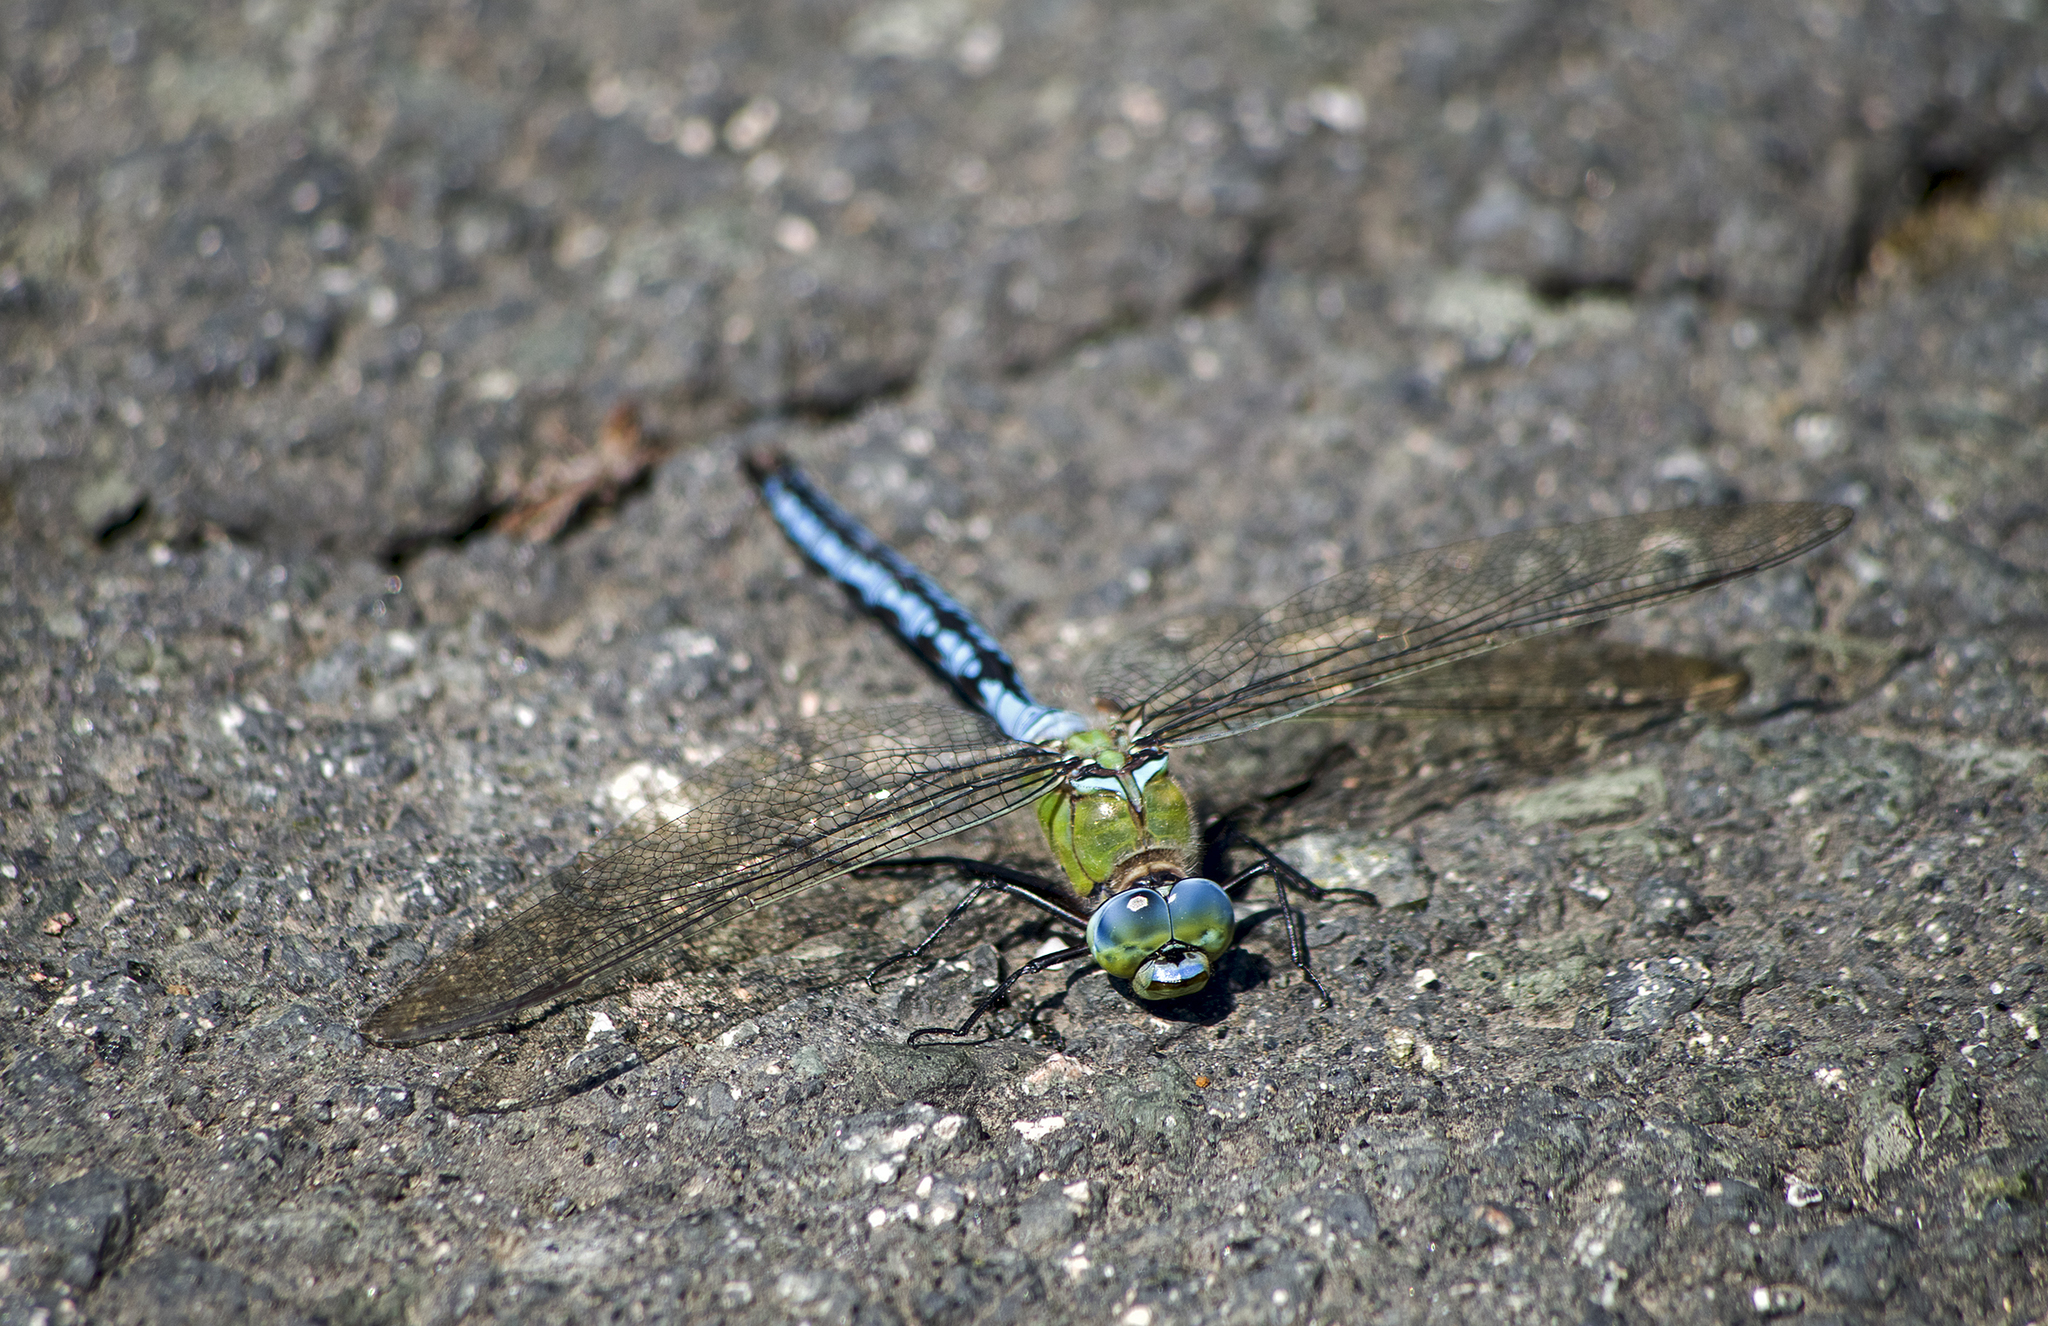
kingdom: Animalia
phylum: Arthropoda
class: Insecta
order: Odonata
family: Aeshnidae
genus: Anax
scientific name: Anax imperator
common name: Emperor dragonfly
